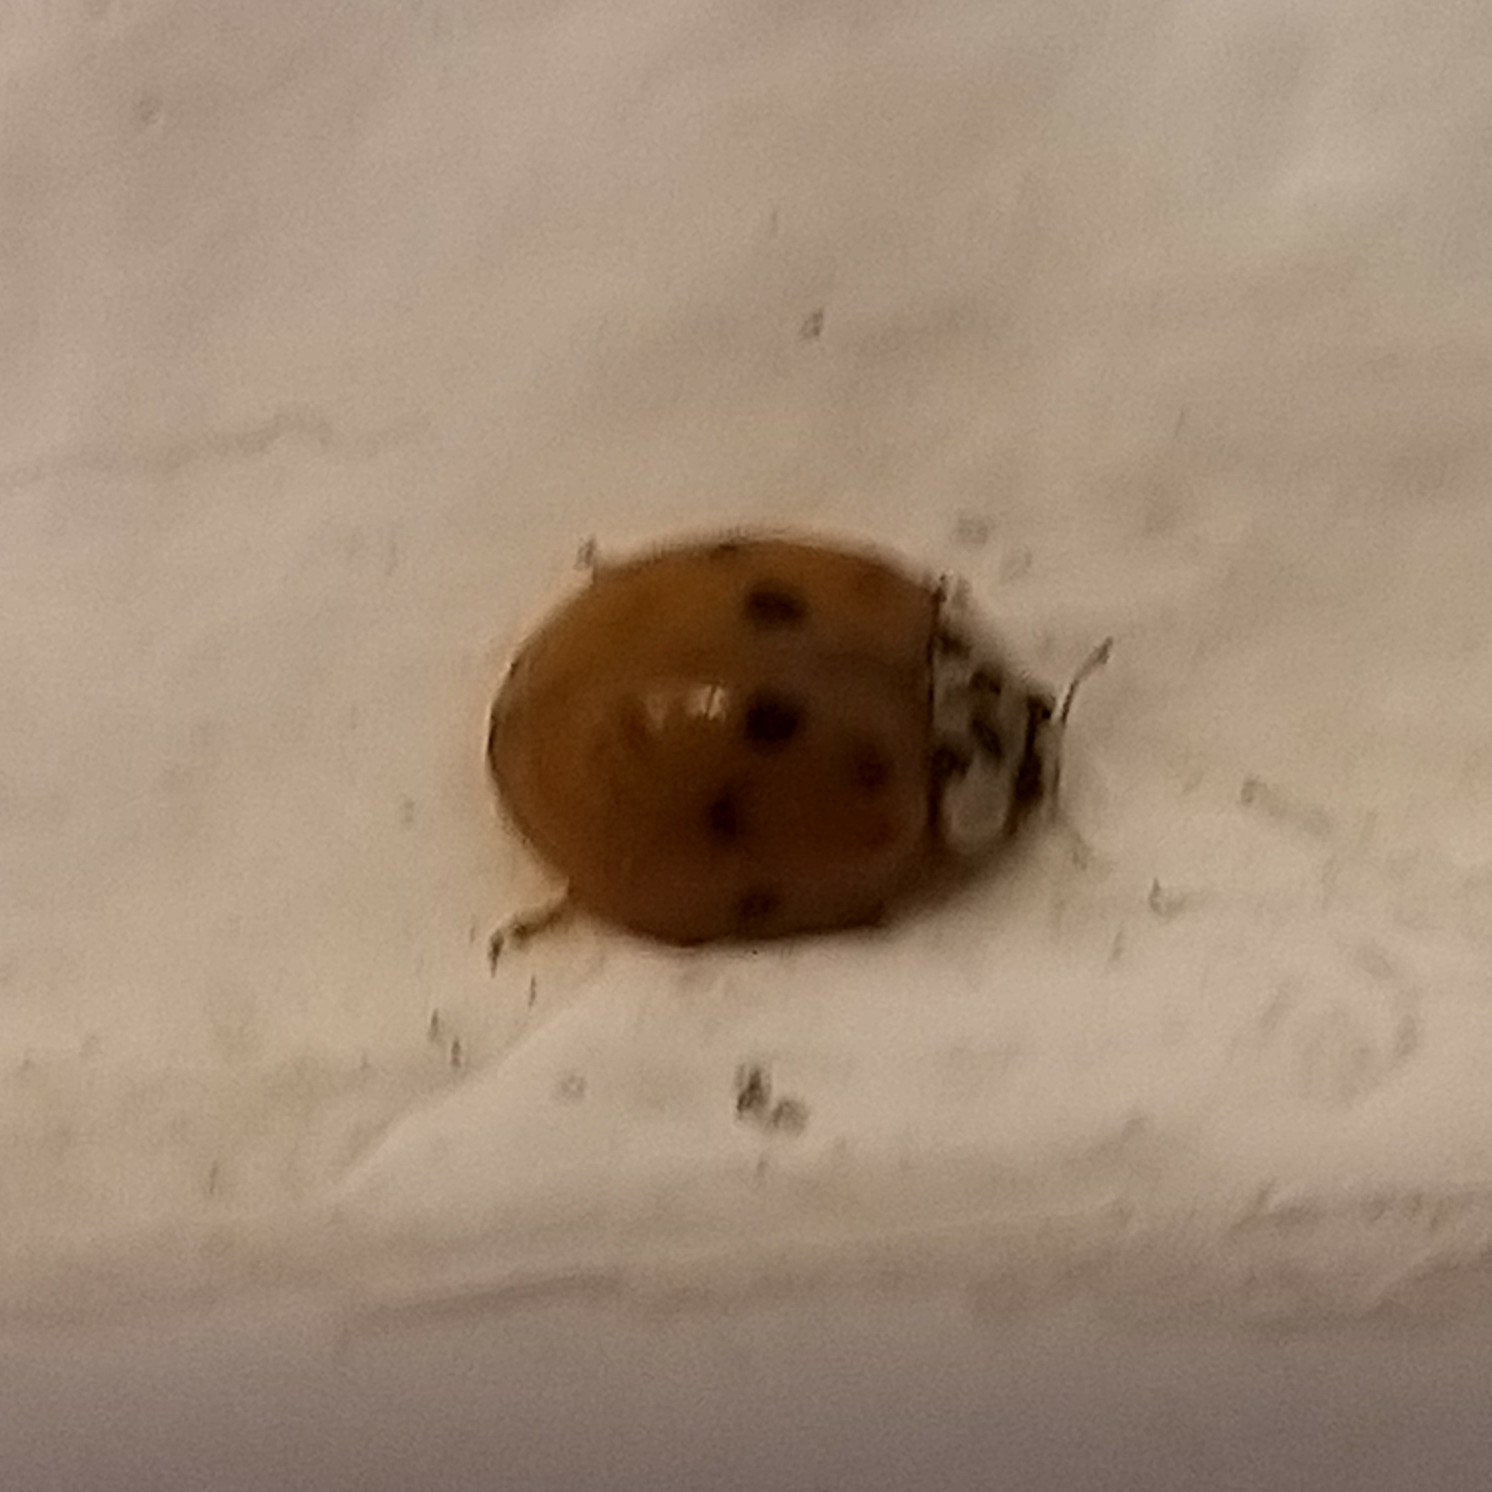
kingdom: Animalia
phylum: Arthropoda
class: Insecta
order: Coleoptera
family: Coccinellidae
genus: Harmonia
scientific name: Harmonia axyridis
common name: Harlequin ladybird
